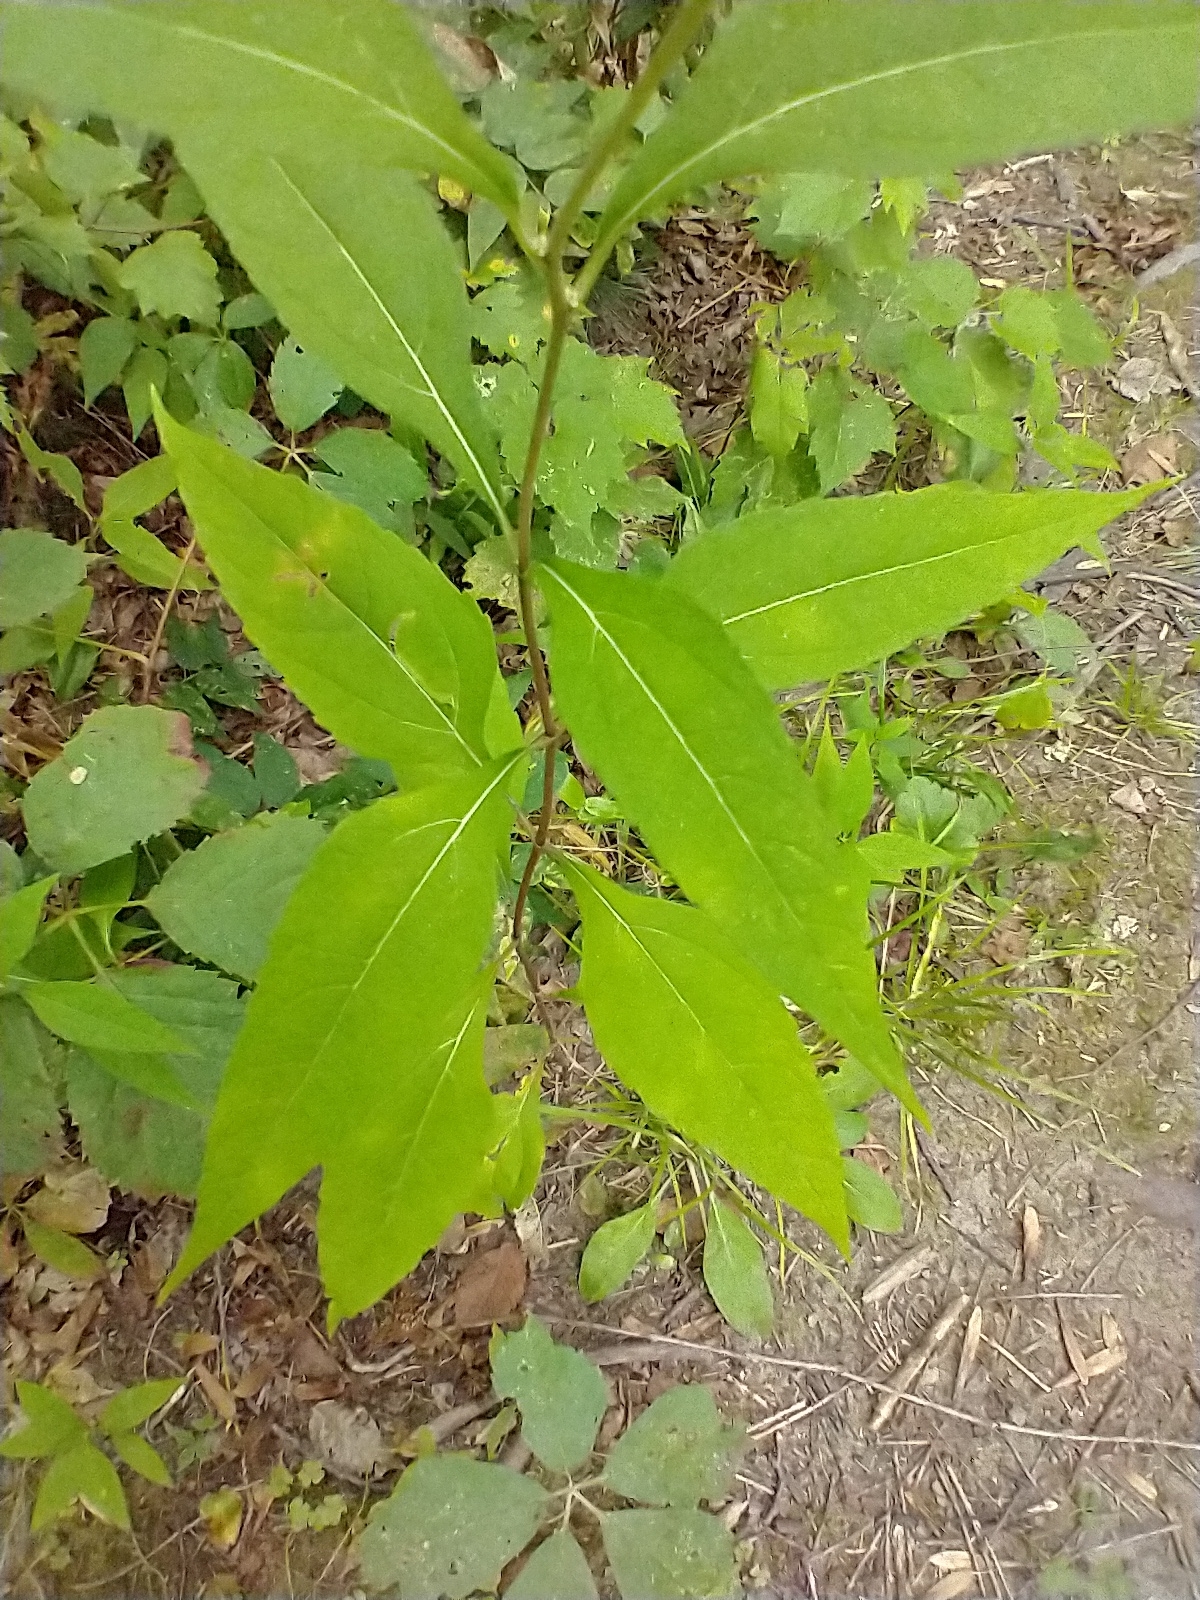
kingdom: Plantae
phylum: Tracheophyta
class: Magnoliopsida
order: Asterales
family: Asteraceae
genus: Helianthus
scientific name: Helianthus decapetalus
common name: Thin-leaved sunflower
